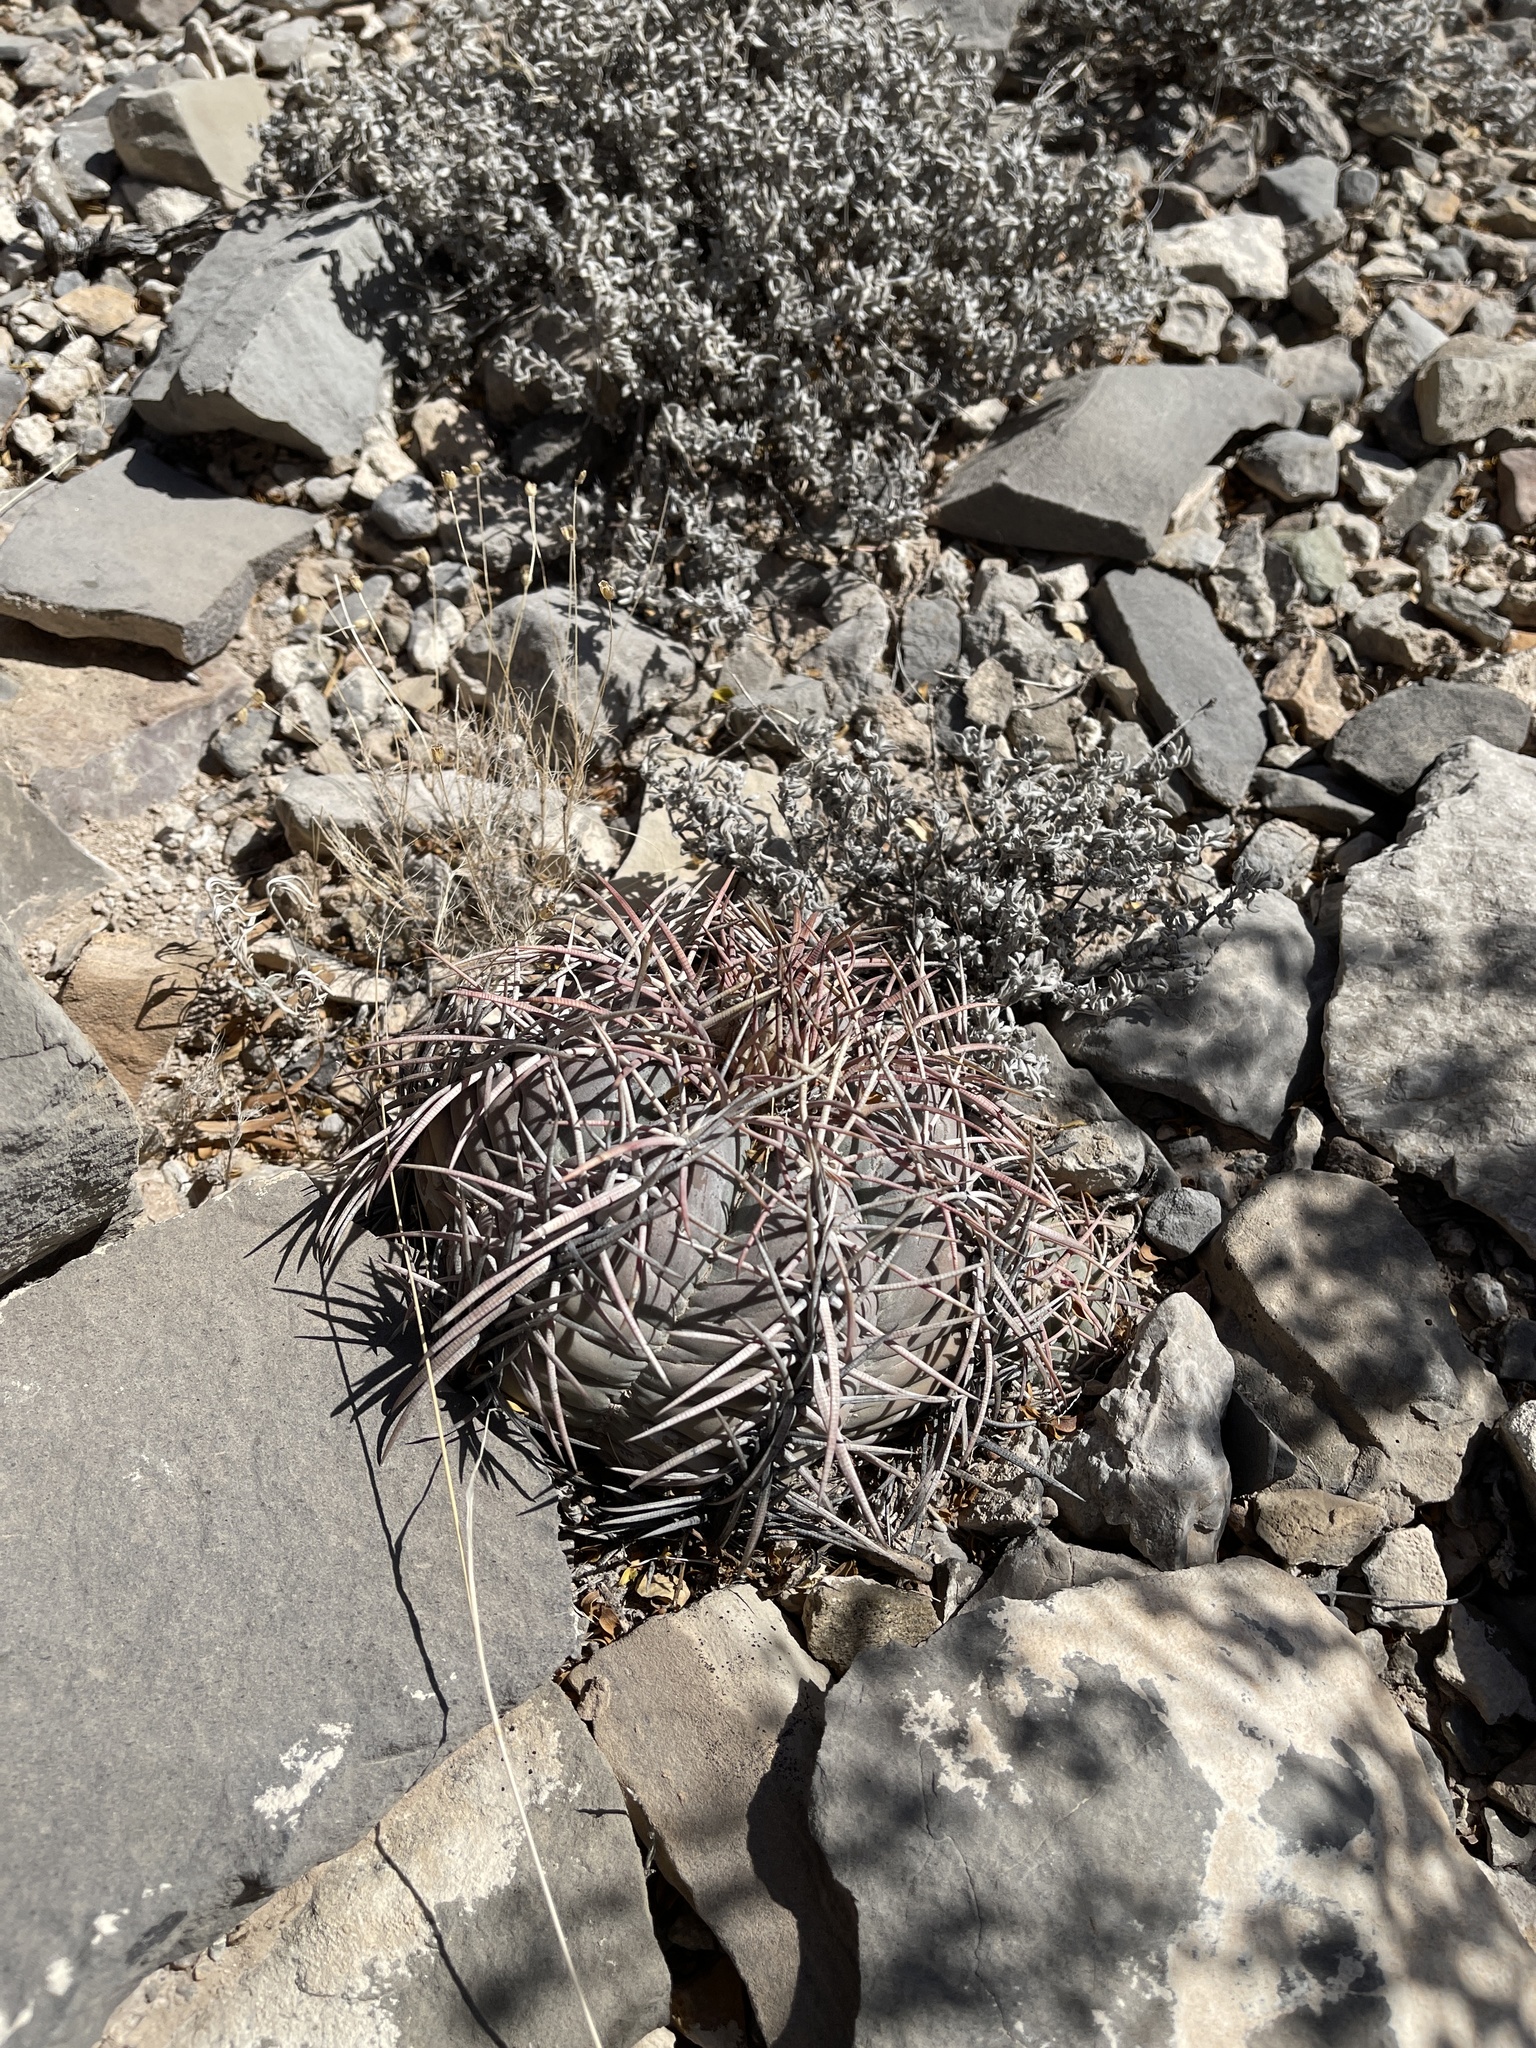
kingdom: Plantae
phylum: Tracheophyta
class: Magnoliopsida
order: Caryophyllales
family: Cactaceae
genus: Echinocactus
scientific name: Echinocactus horizonthalonius
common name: Devilshead
